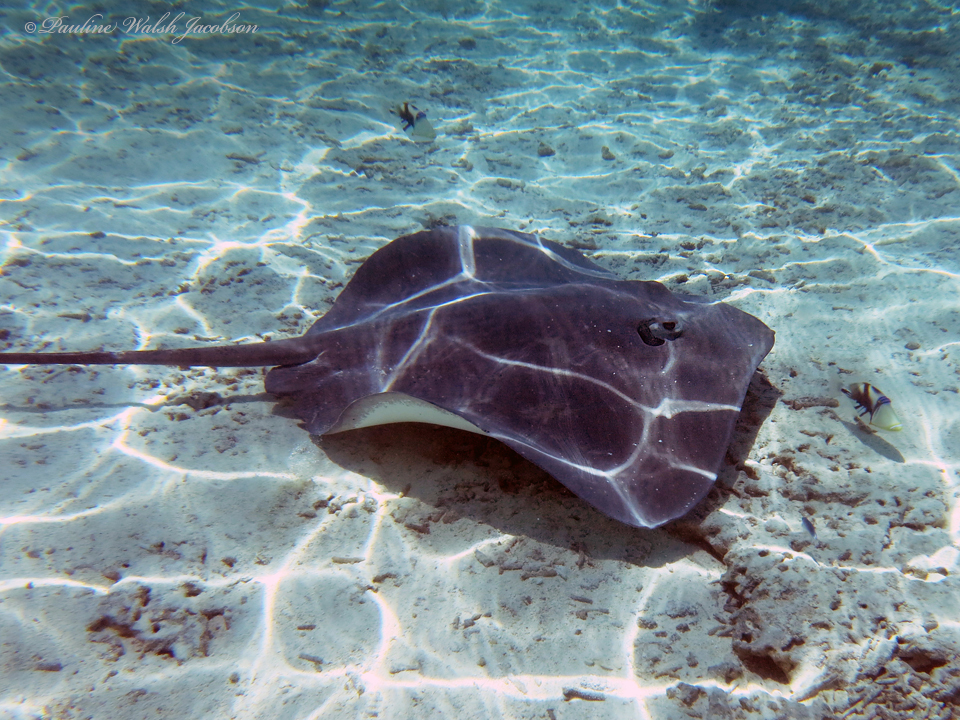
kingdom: Animalia
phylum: Chordata
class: Elasmobranchii
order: Myliobatiformes
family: Dasyatidae
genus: Pateobatis
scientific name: Pateobatis fai
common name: Pink whipray
